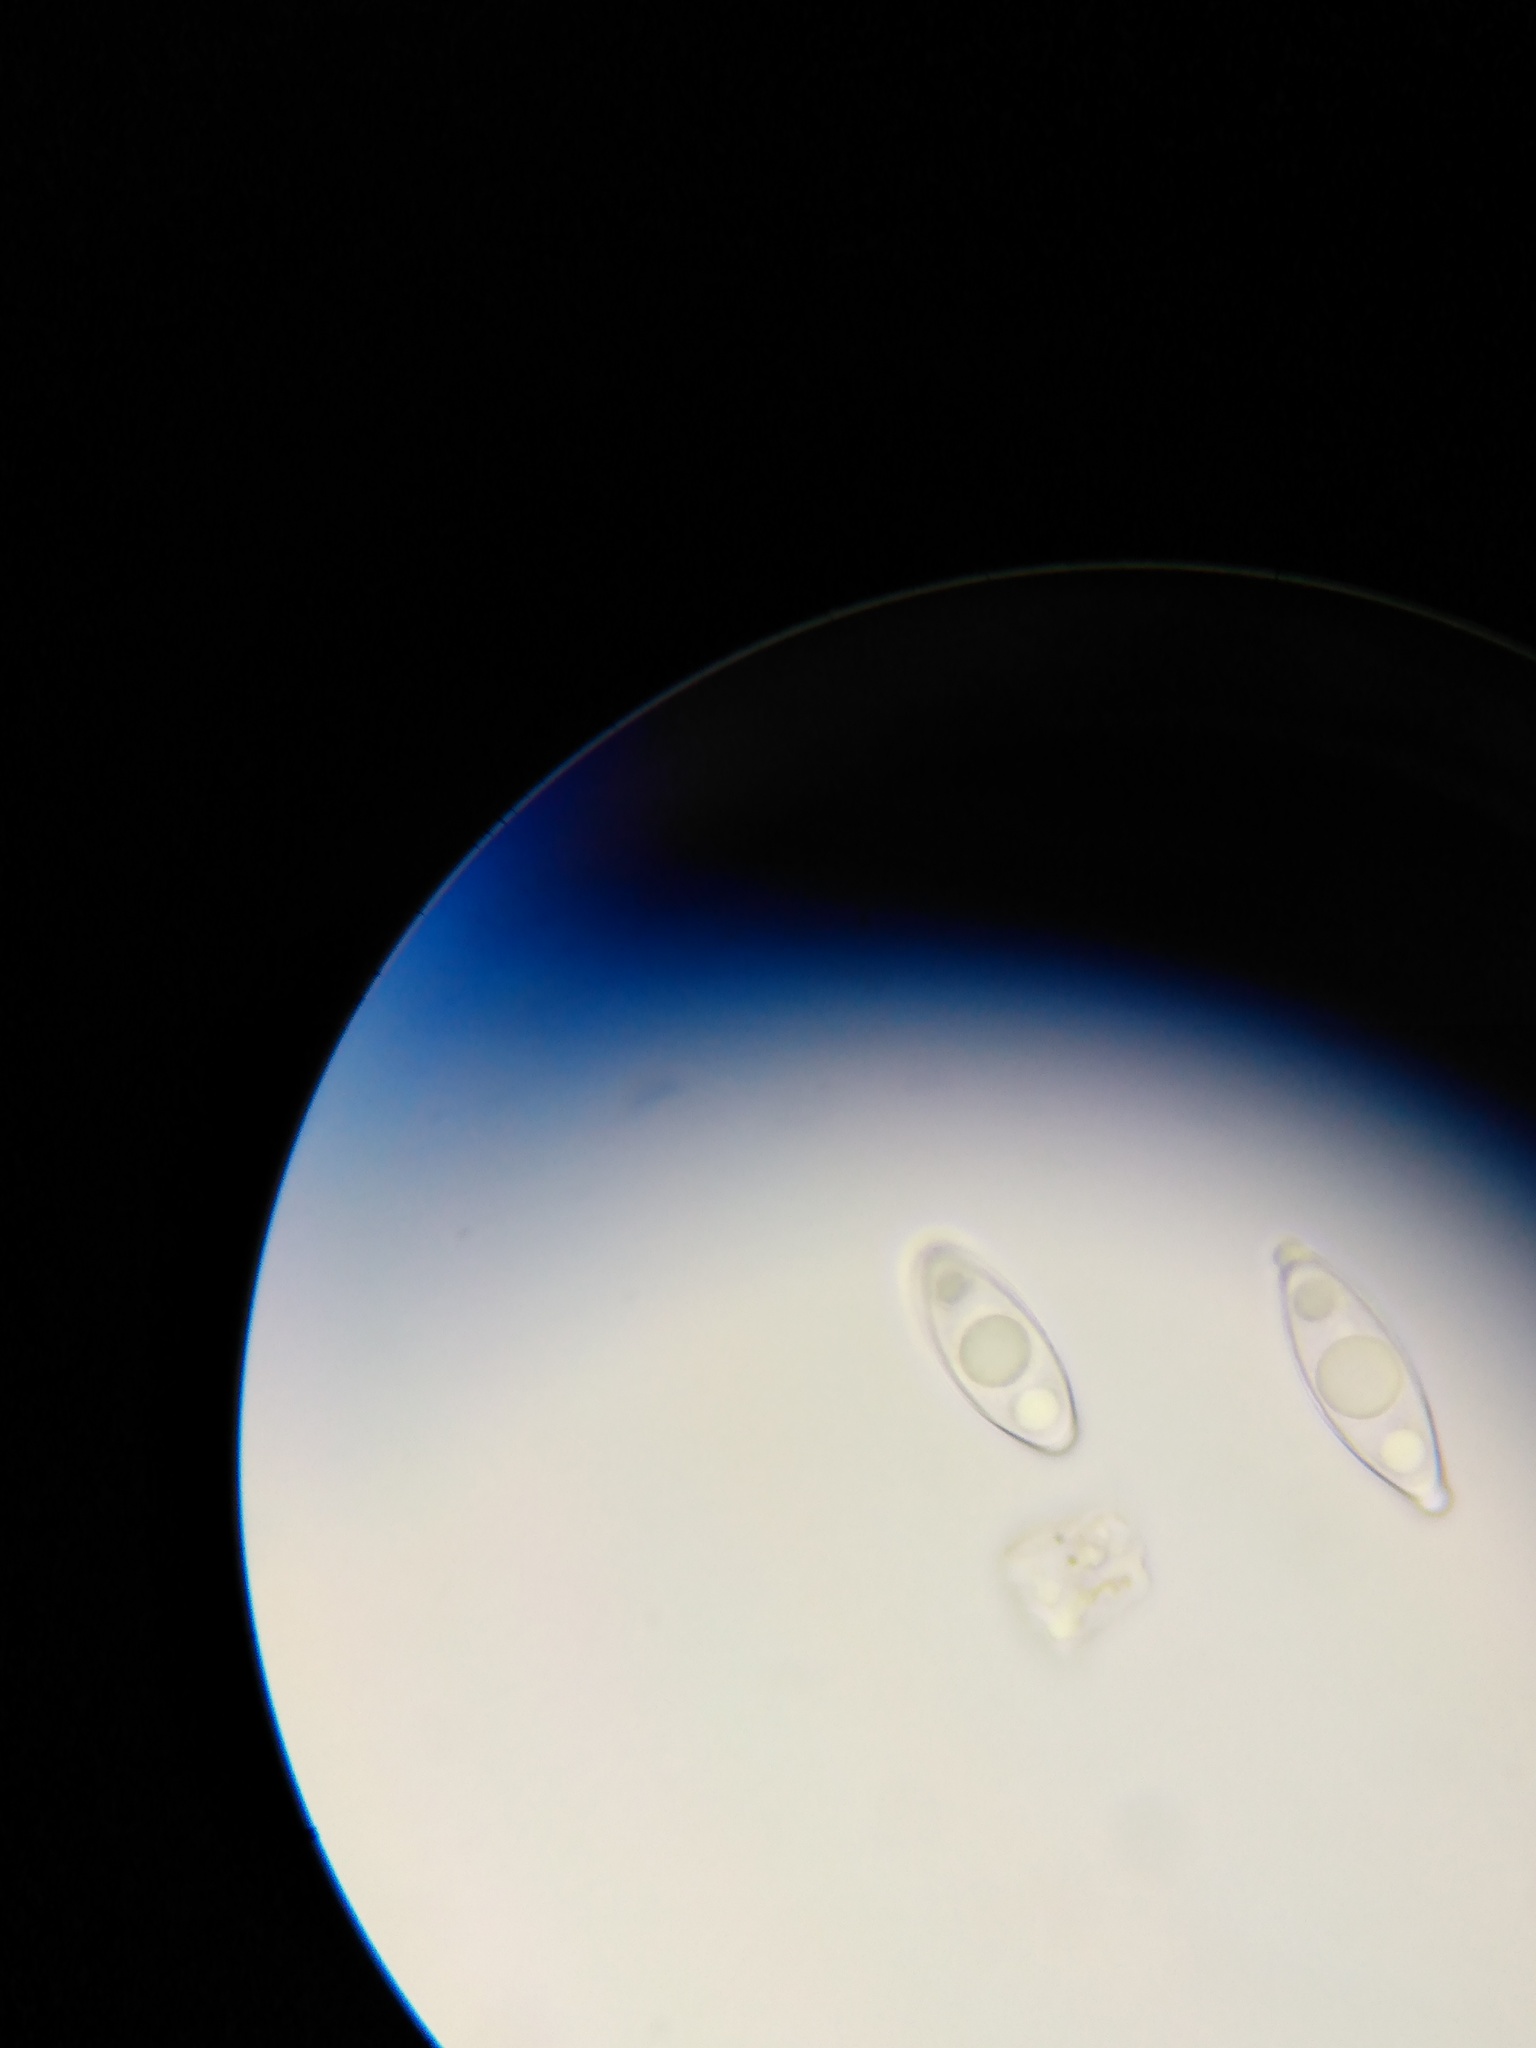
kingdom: Fungi
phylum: Ascomycota
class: Pezizomycetes
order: Pezizales
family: Discinaceae
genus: Gyromitra
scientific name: Gyromitra korfii
